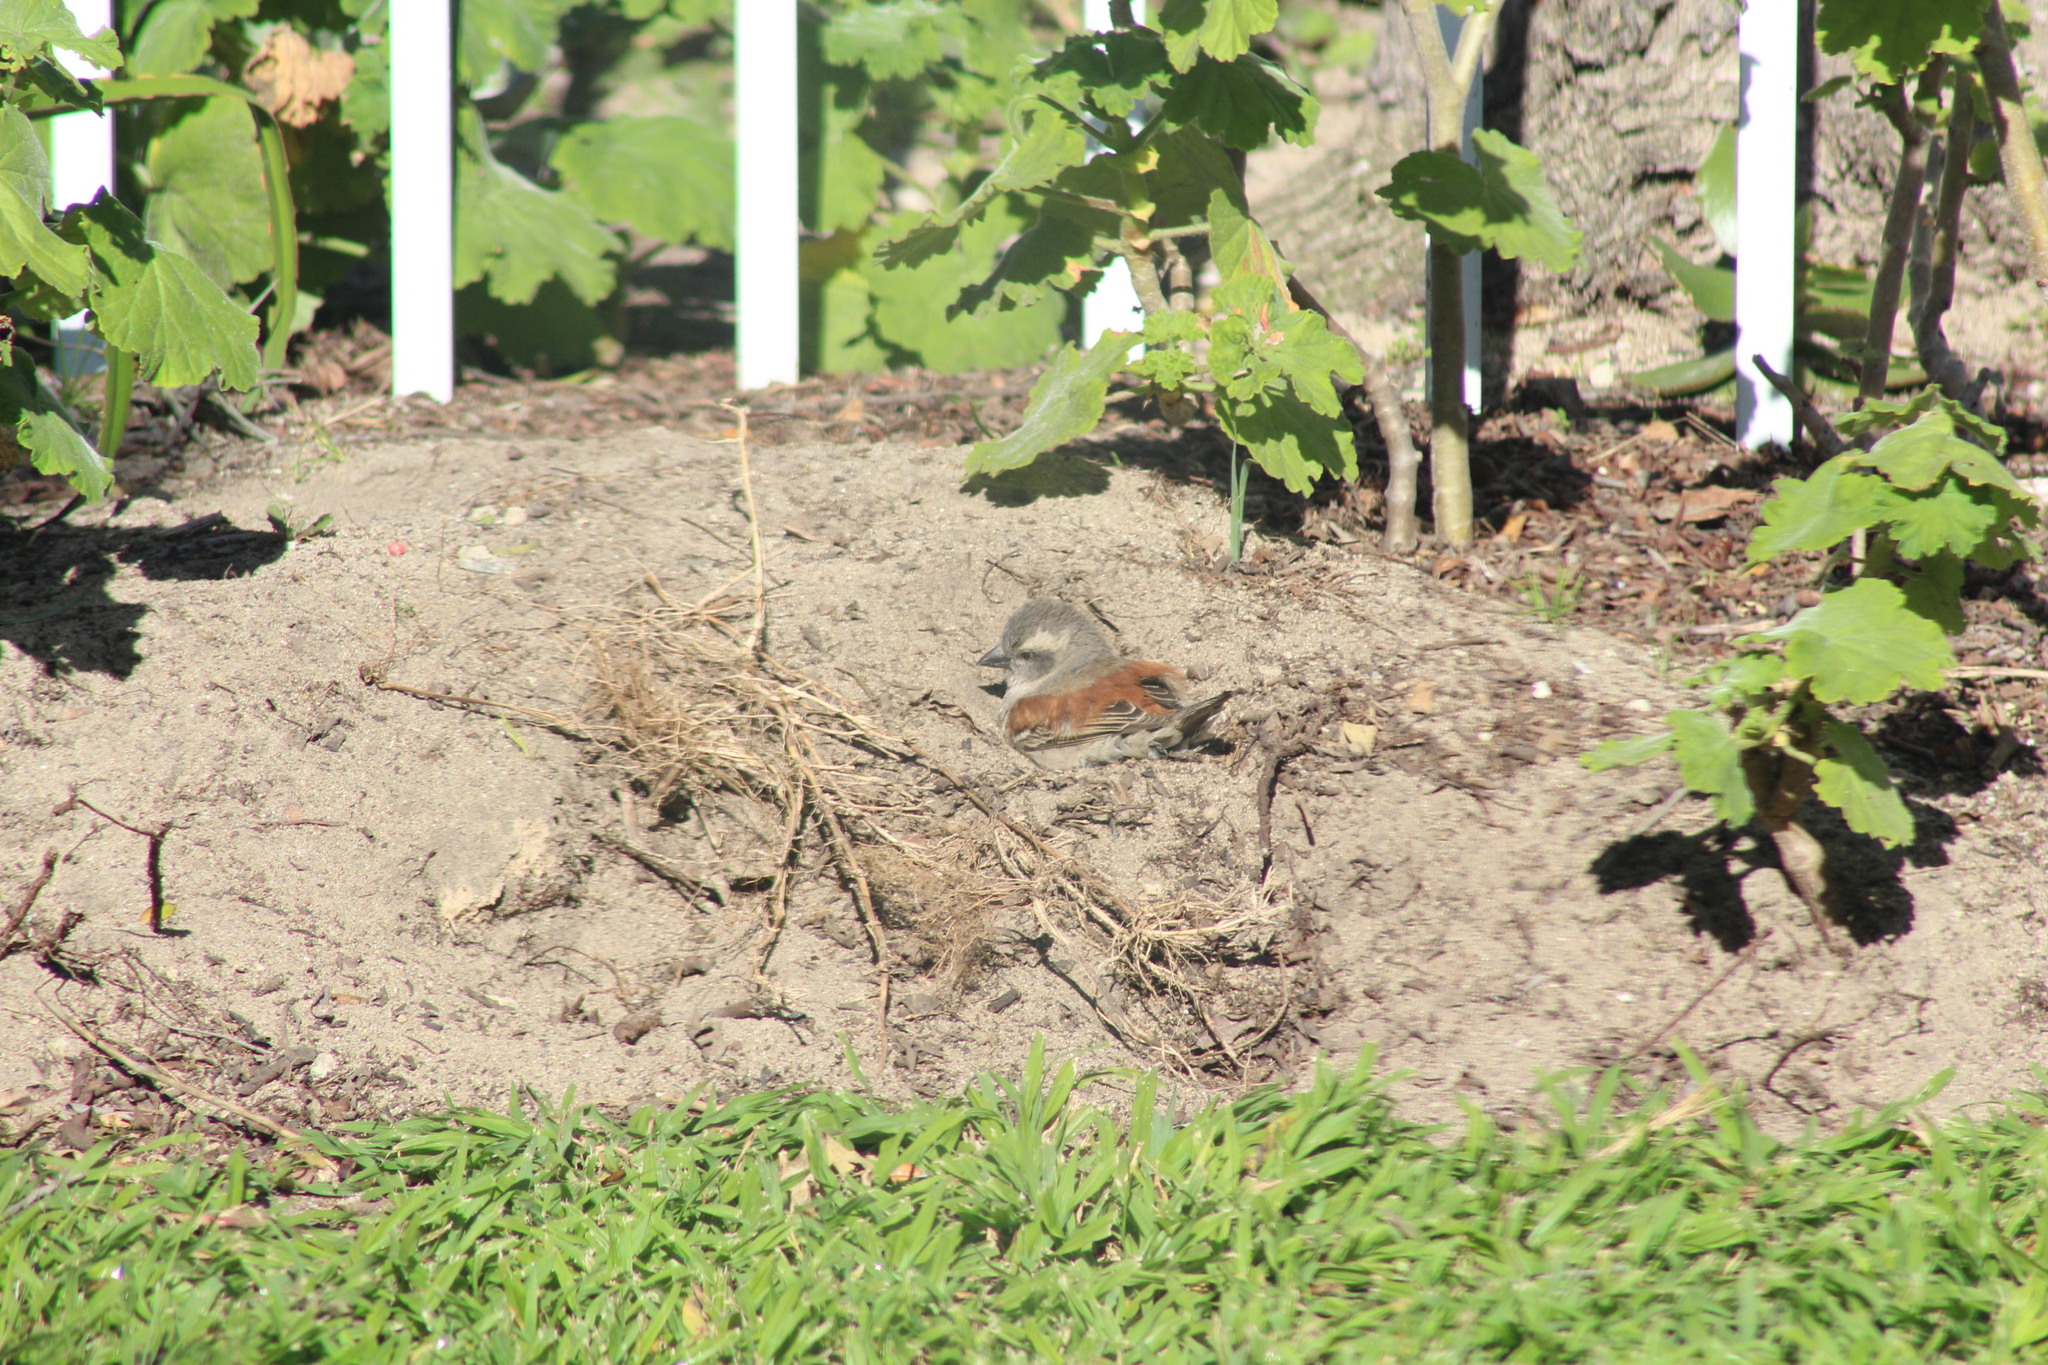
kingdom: Animalia
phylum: Chordata
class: Aves
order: Passeriformes
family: Passeridae
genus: Passer
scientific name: Passer melanurus
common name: Cape sparrow
